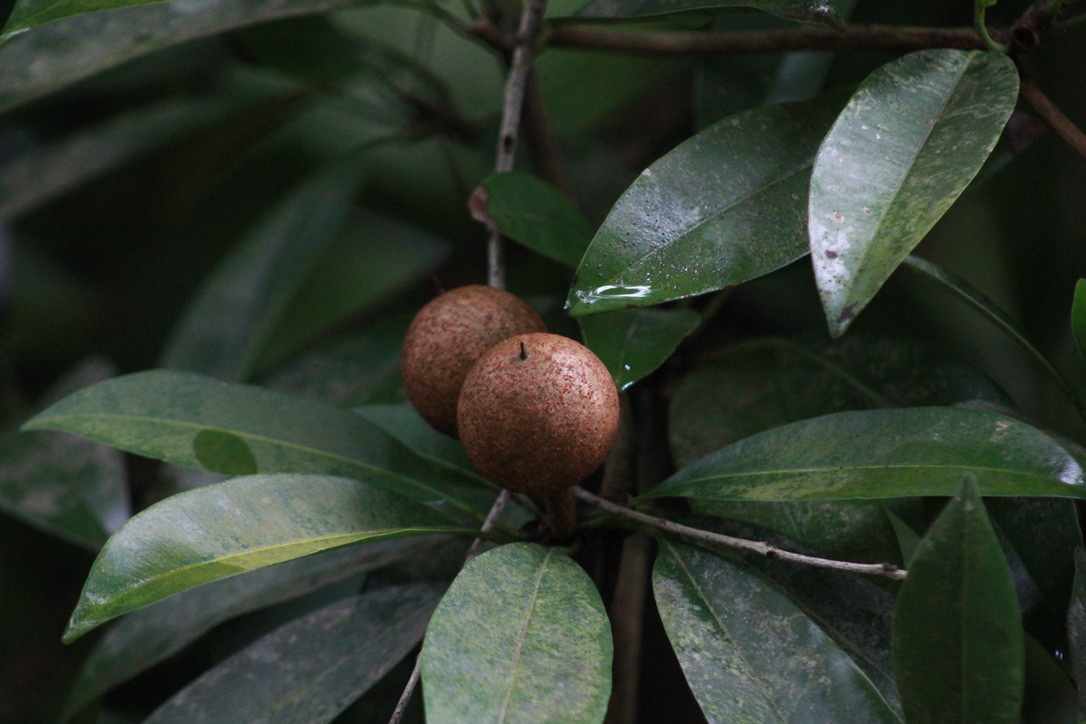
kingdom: Plantae
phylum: Tracheophyta
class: Magnoliopsida
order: Ericales
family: Sapotaceae
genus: Manilkara
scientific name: Manilkara zapota
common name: Sapodilla
